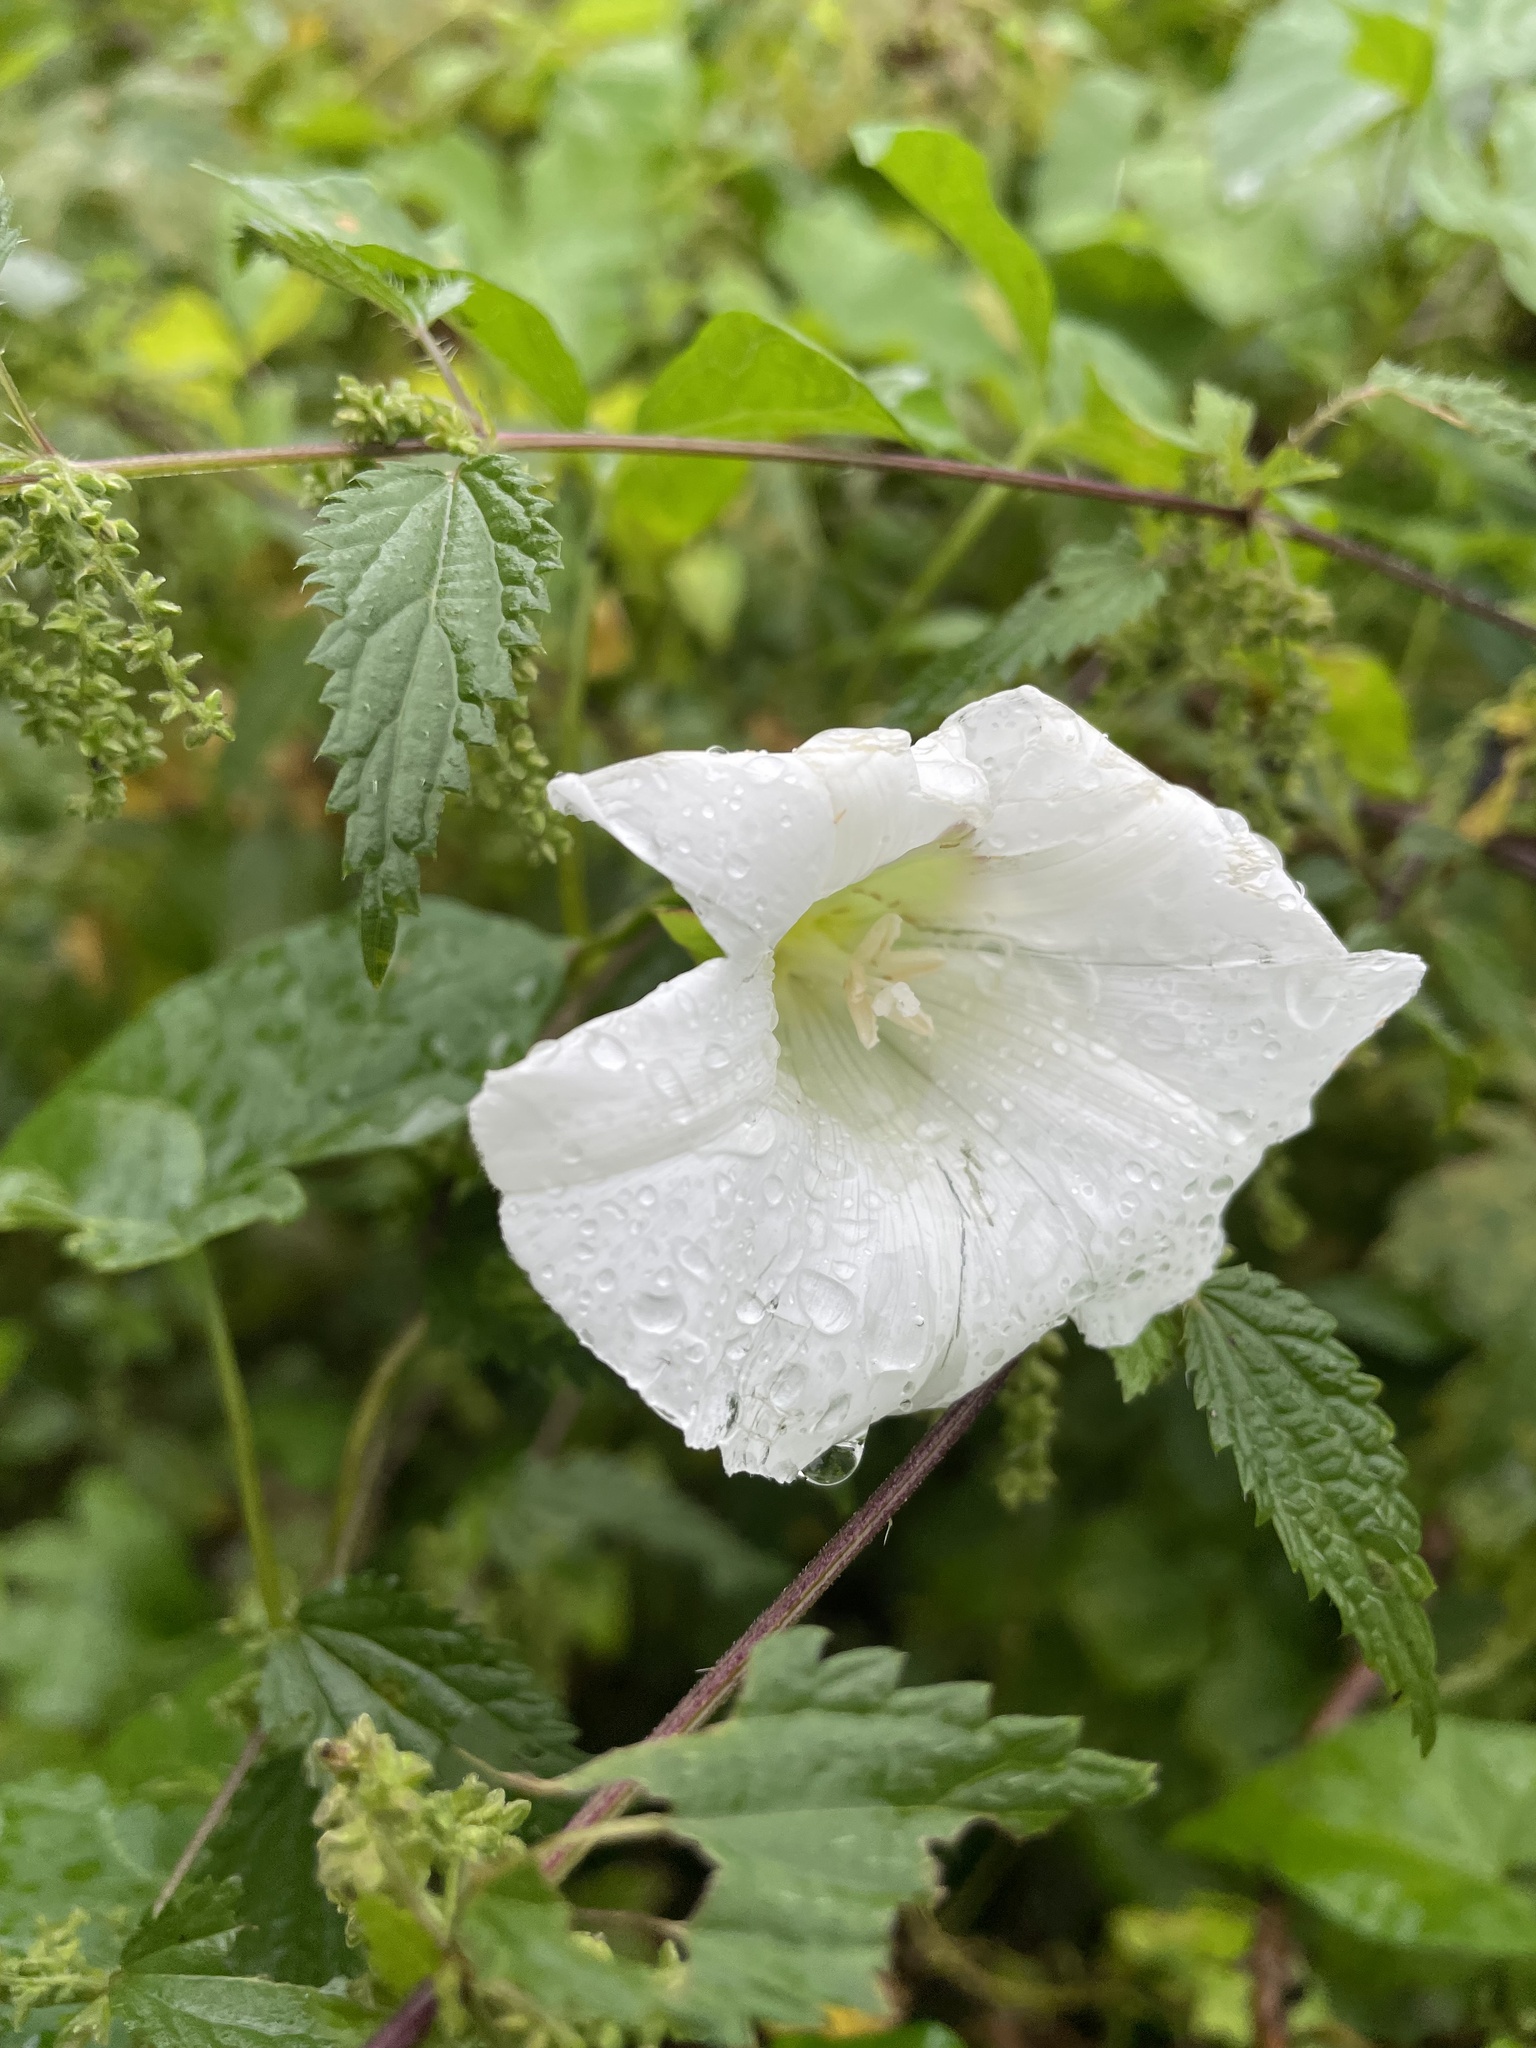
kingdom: Plantae
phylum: Tracheophyta
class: Magnoliopsida
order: Solanales
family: Convolvulaceae
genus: Calystegia
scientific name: Calystegia sepium
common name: Hedge bindweed
